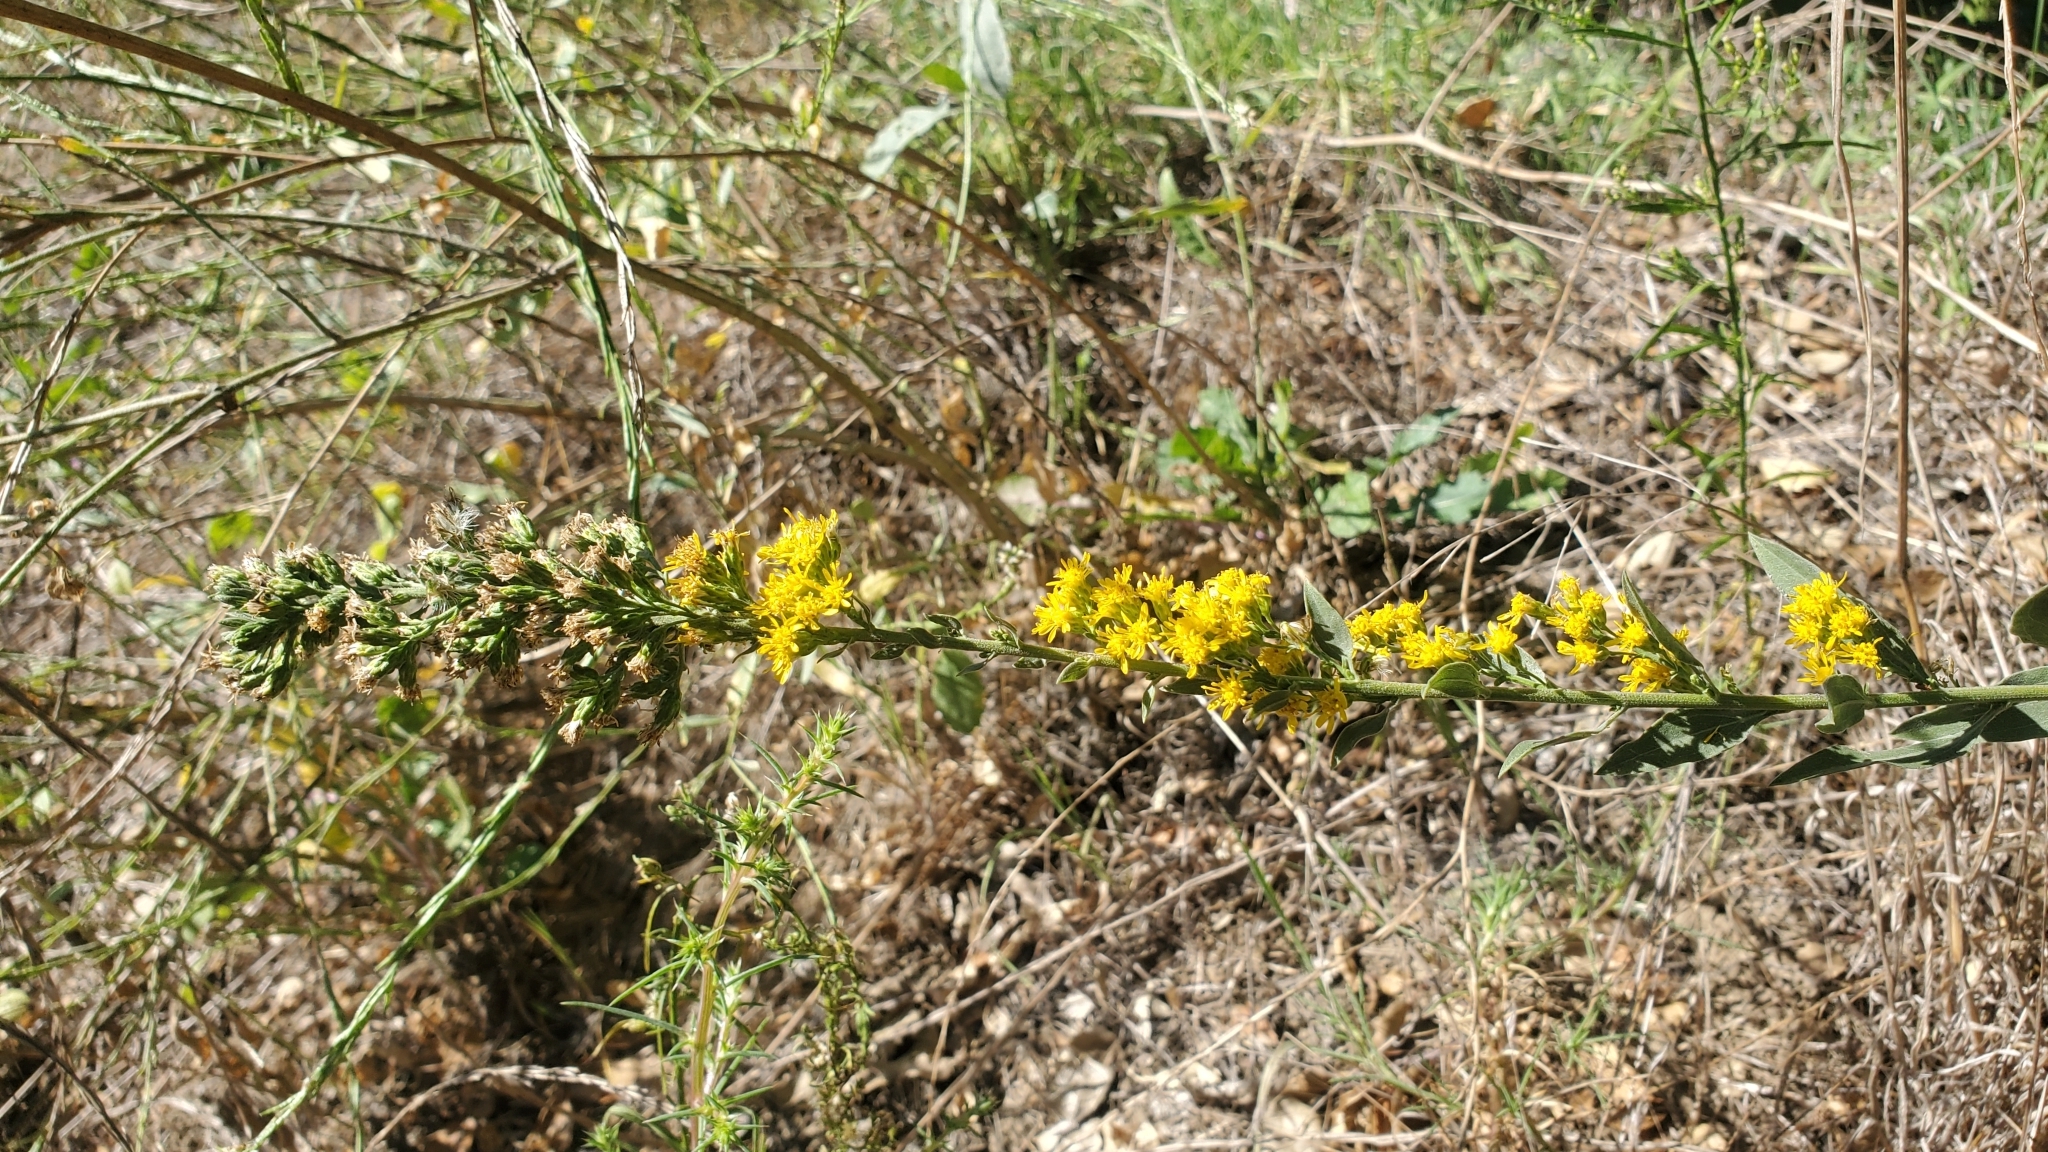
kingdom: Plantae
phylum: Tracheophyta
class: Magnoliopsida
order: Asterales
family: Asteraceae
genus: Solidago
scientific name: Solidago californica
